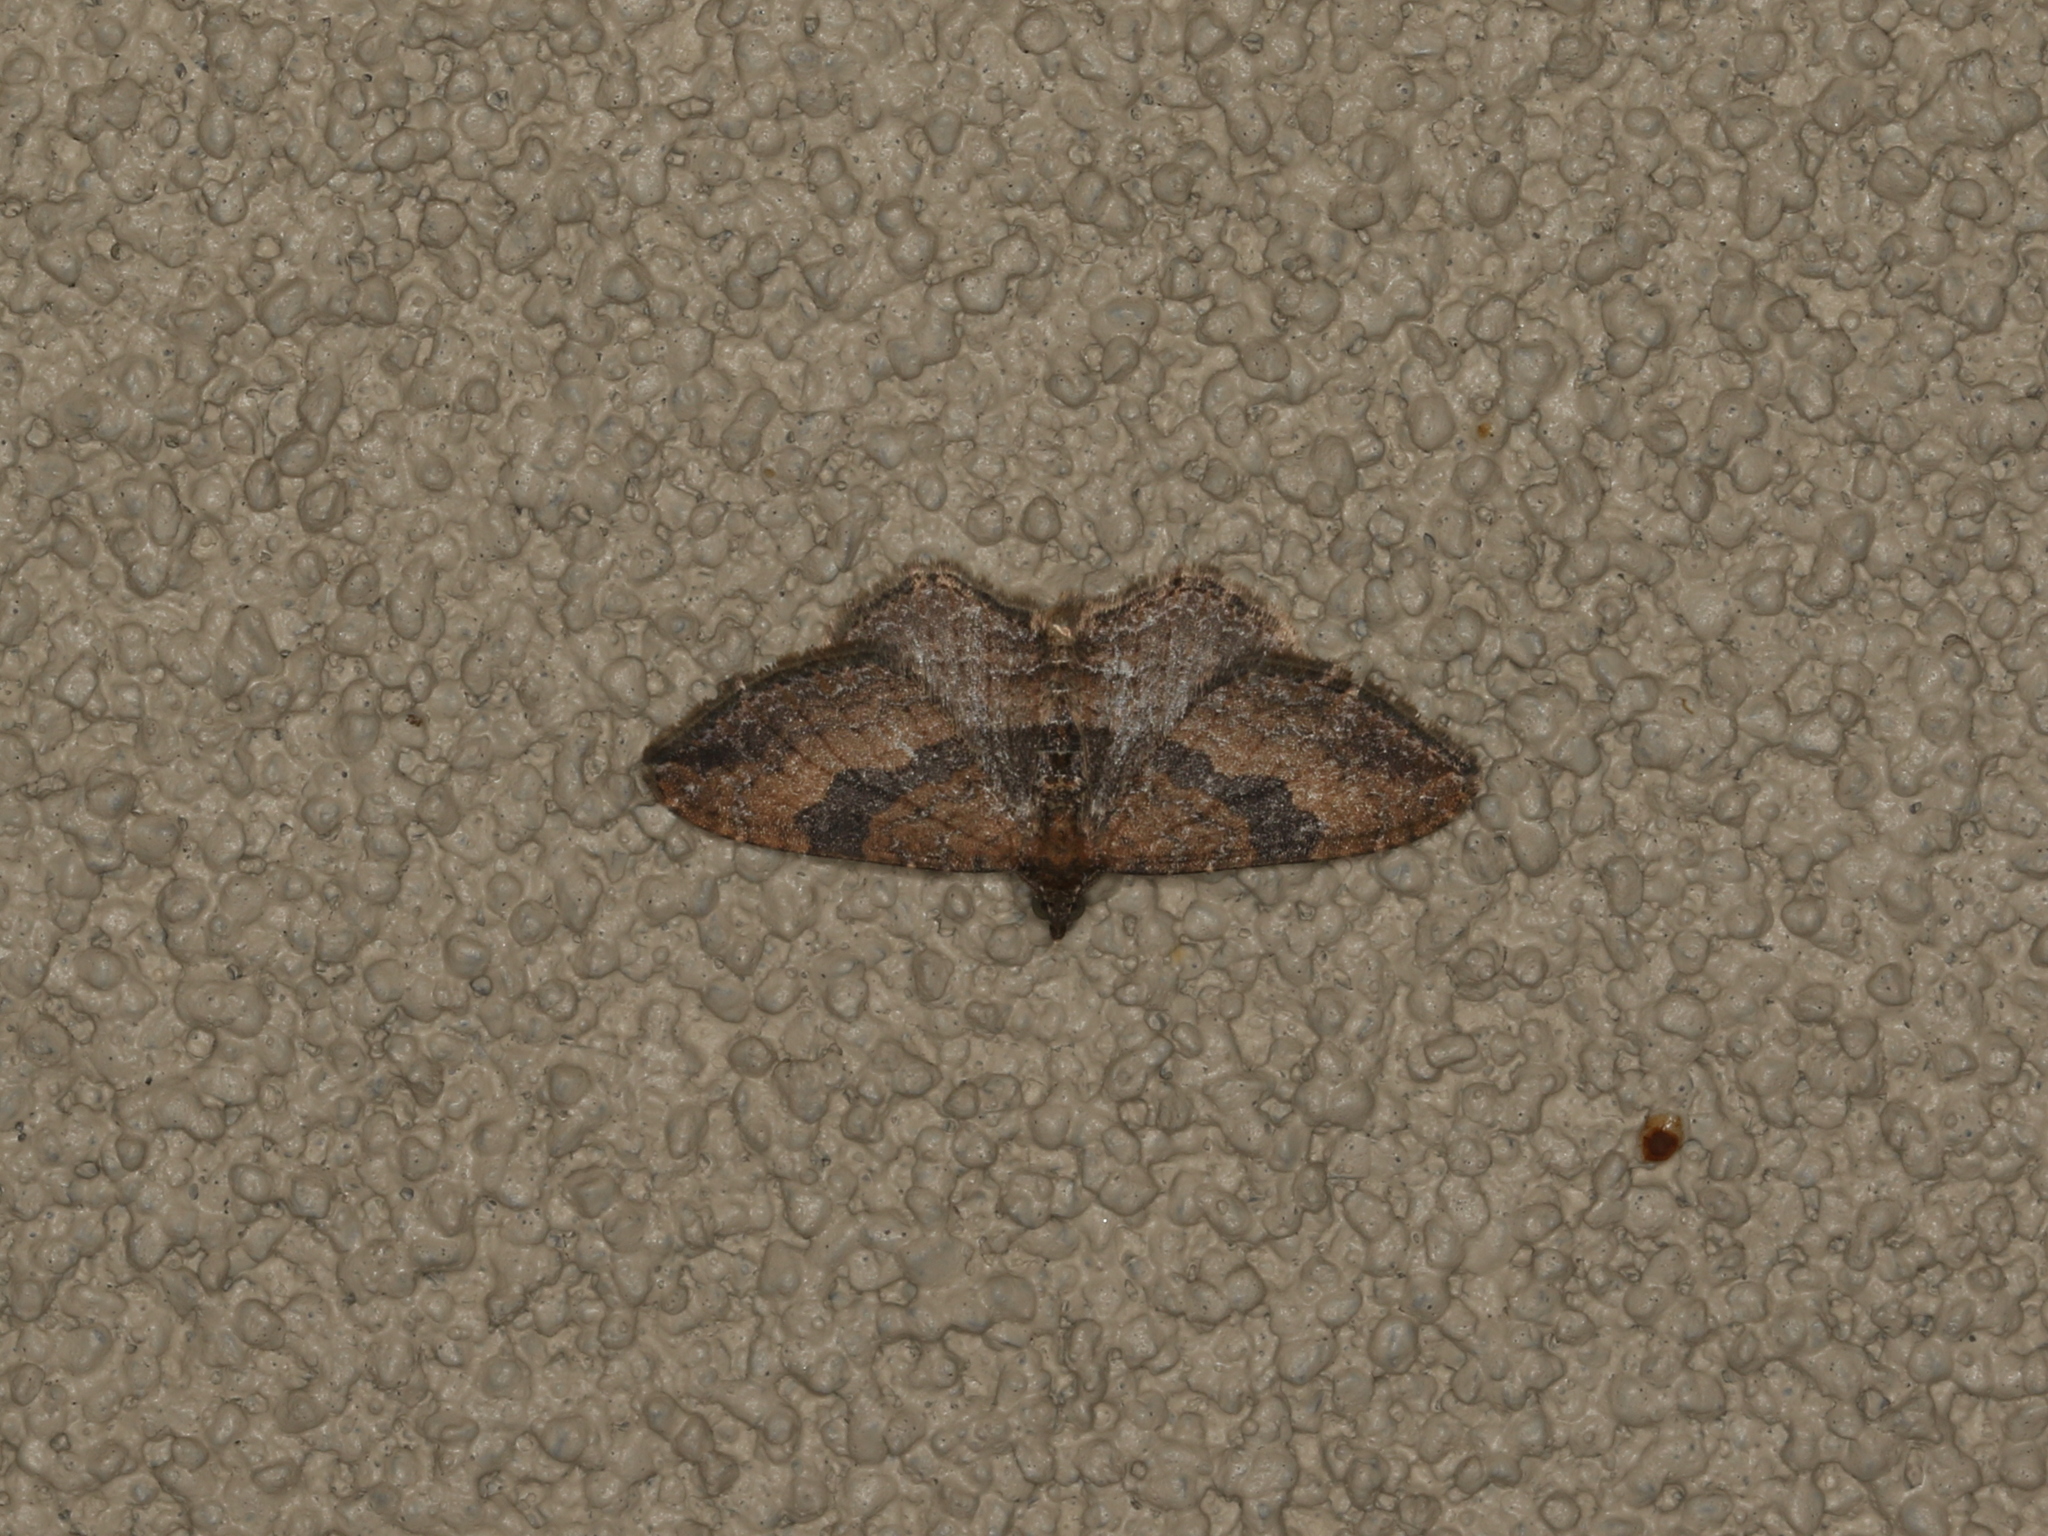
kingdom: Animalia
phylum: Arthropoda
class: Insecta
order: Lepidoptera
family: Geometridae
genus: Orthonama
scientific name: Orthonama obstipata
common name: The gem
